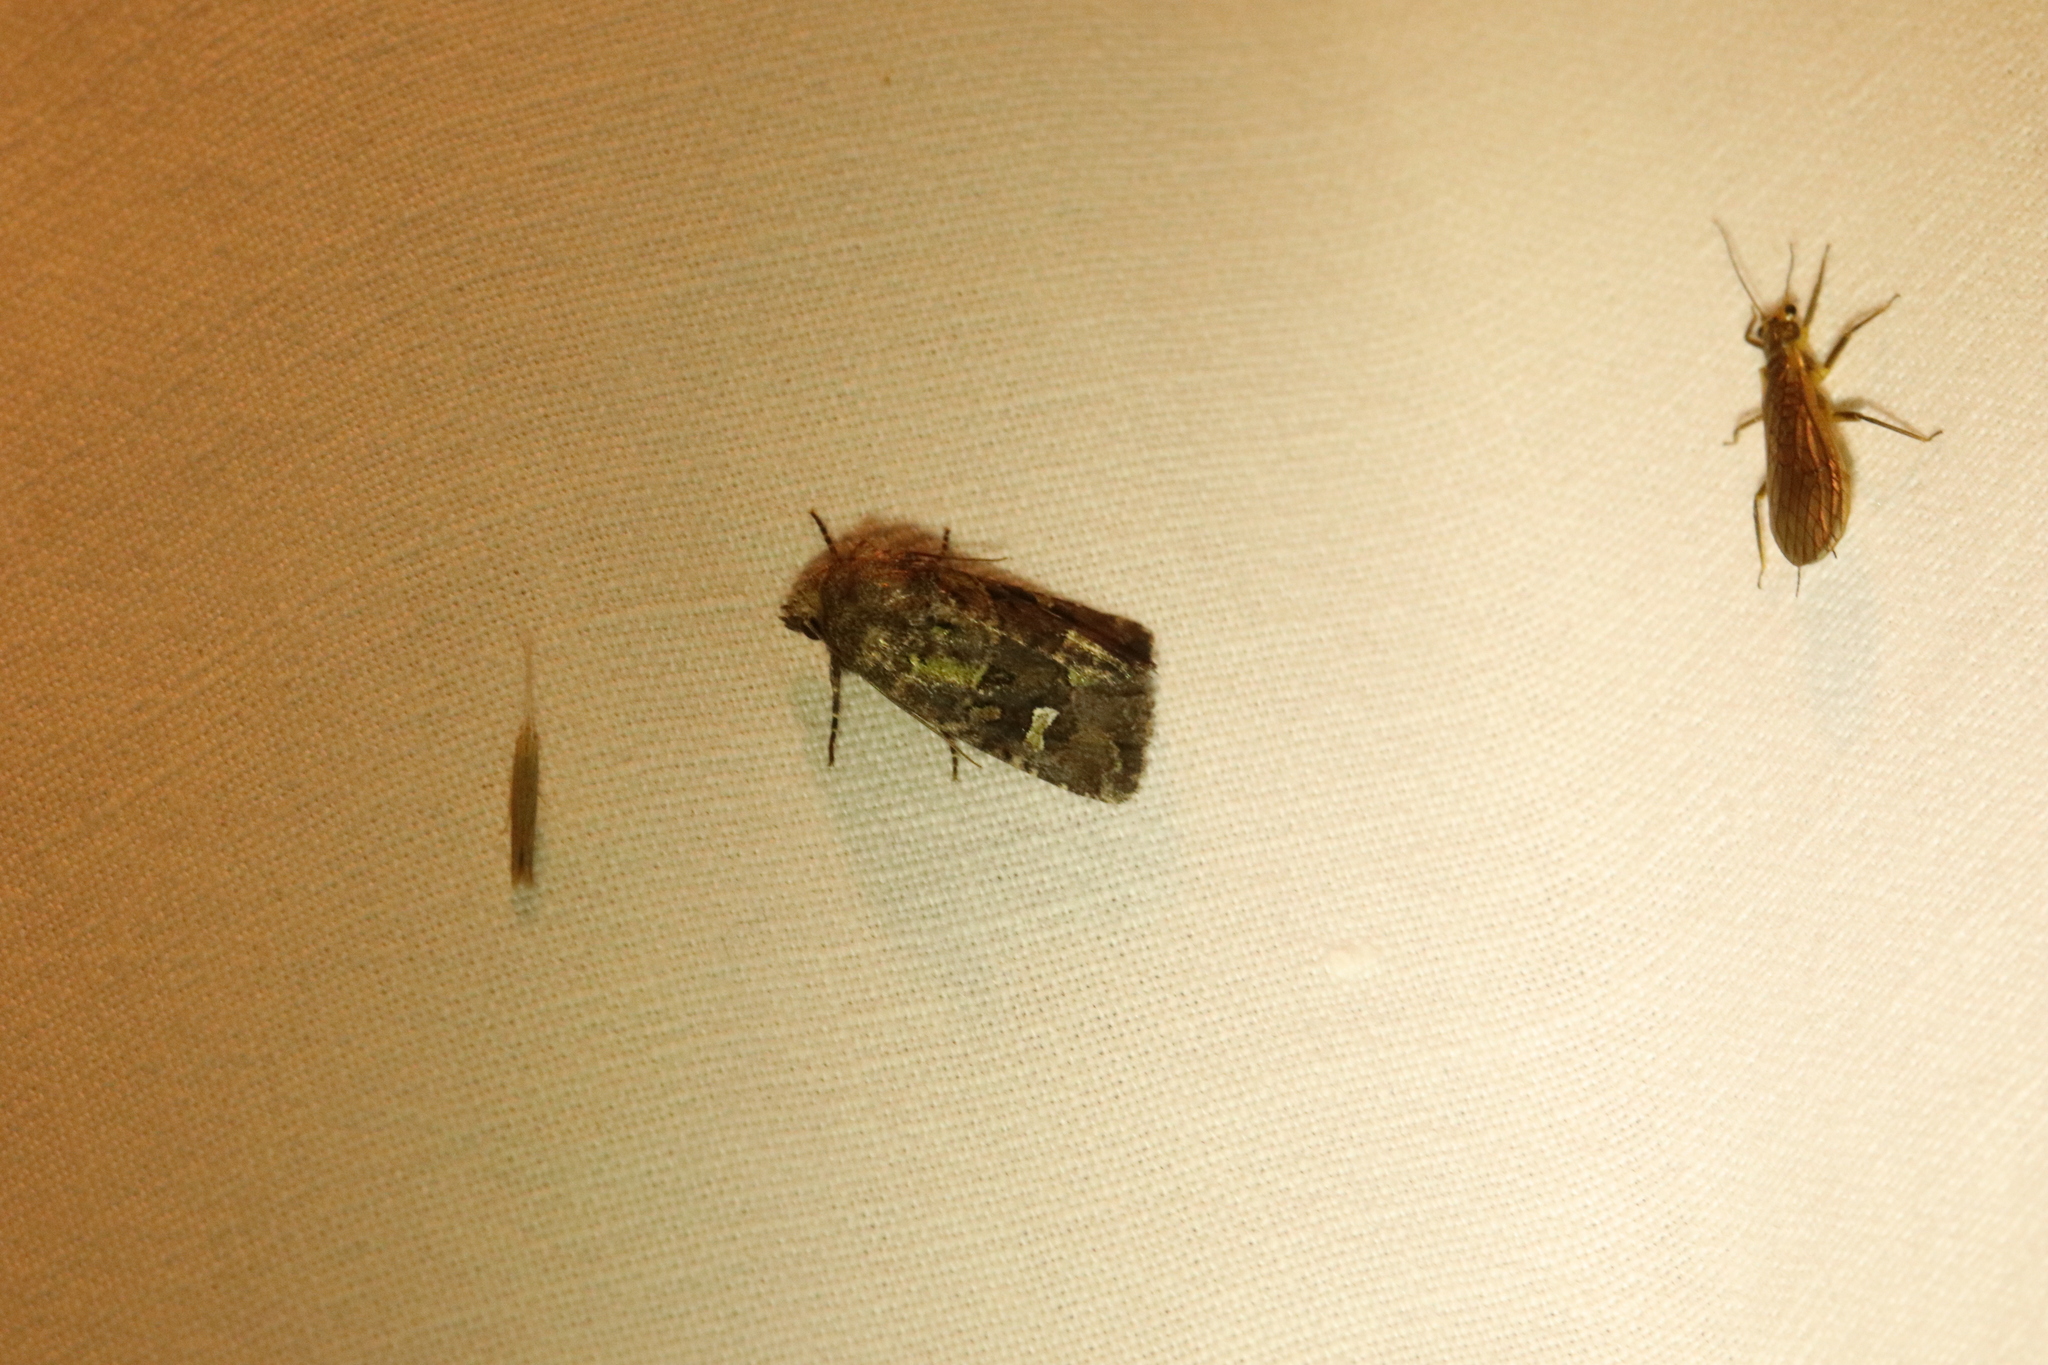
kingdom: Animalia
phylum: Arthropoda
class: Insecta
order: Lepidoptera
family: Noctuidae
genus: Lacinipolia
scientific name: Lacinipolia renigera
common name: Kidney-spotted minor
